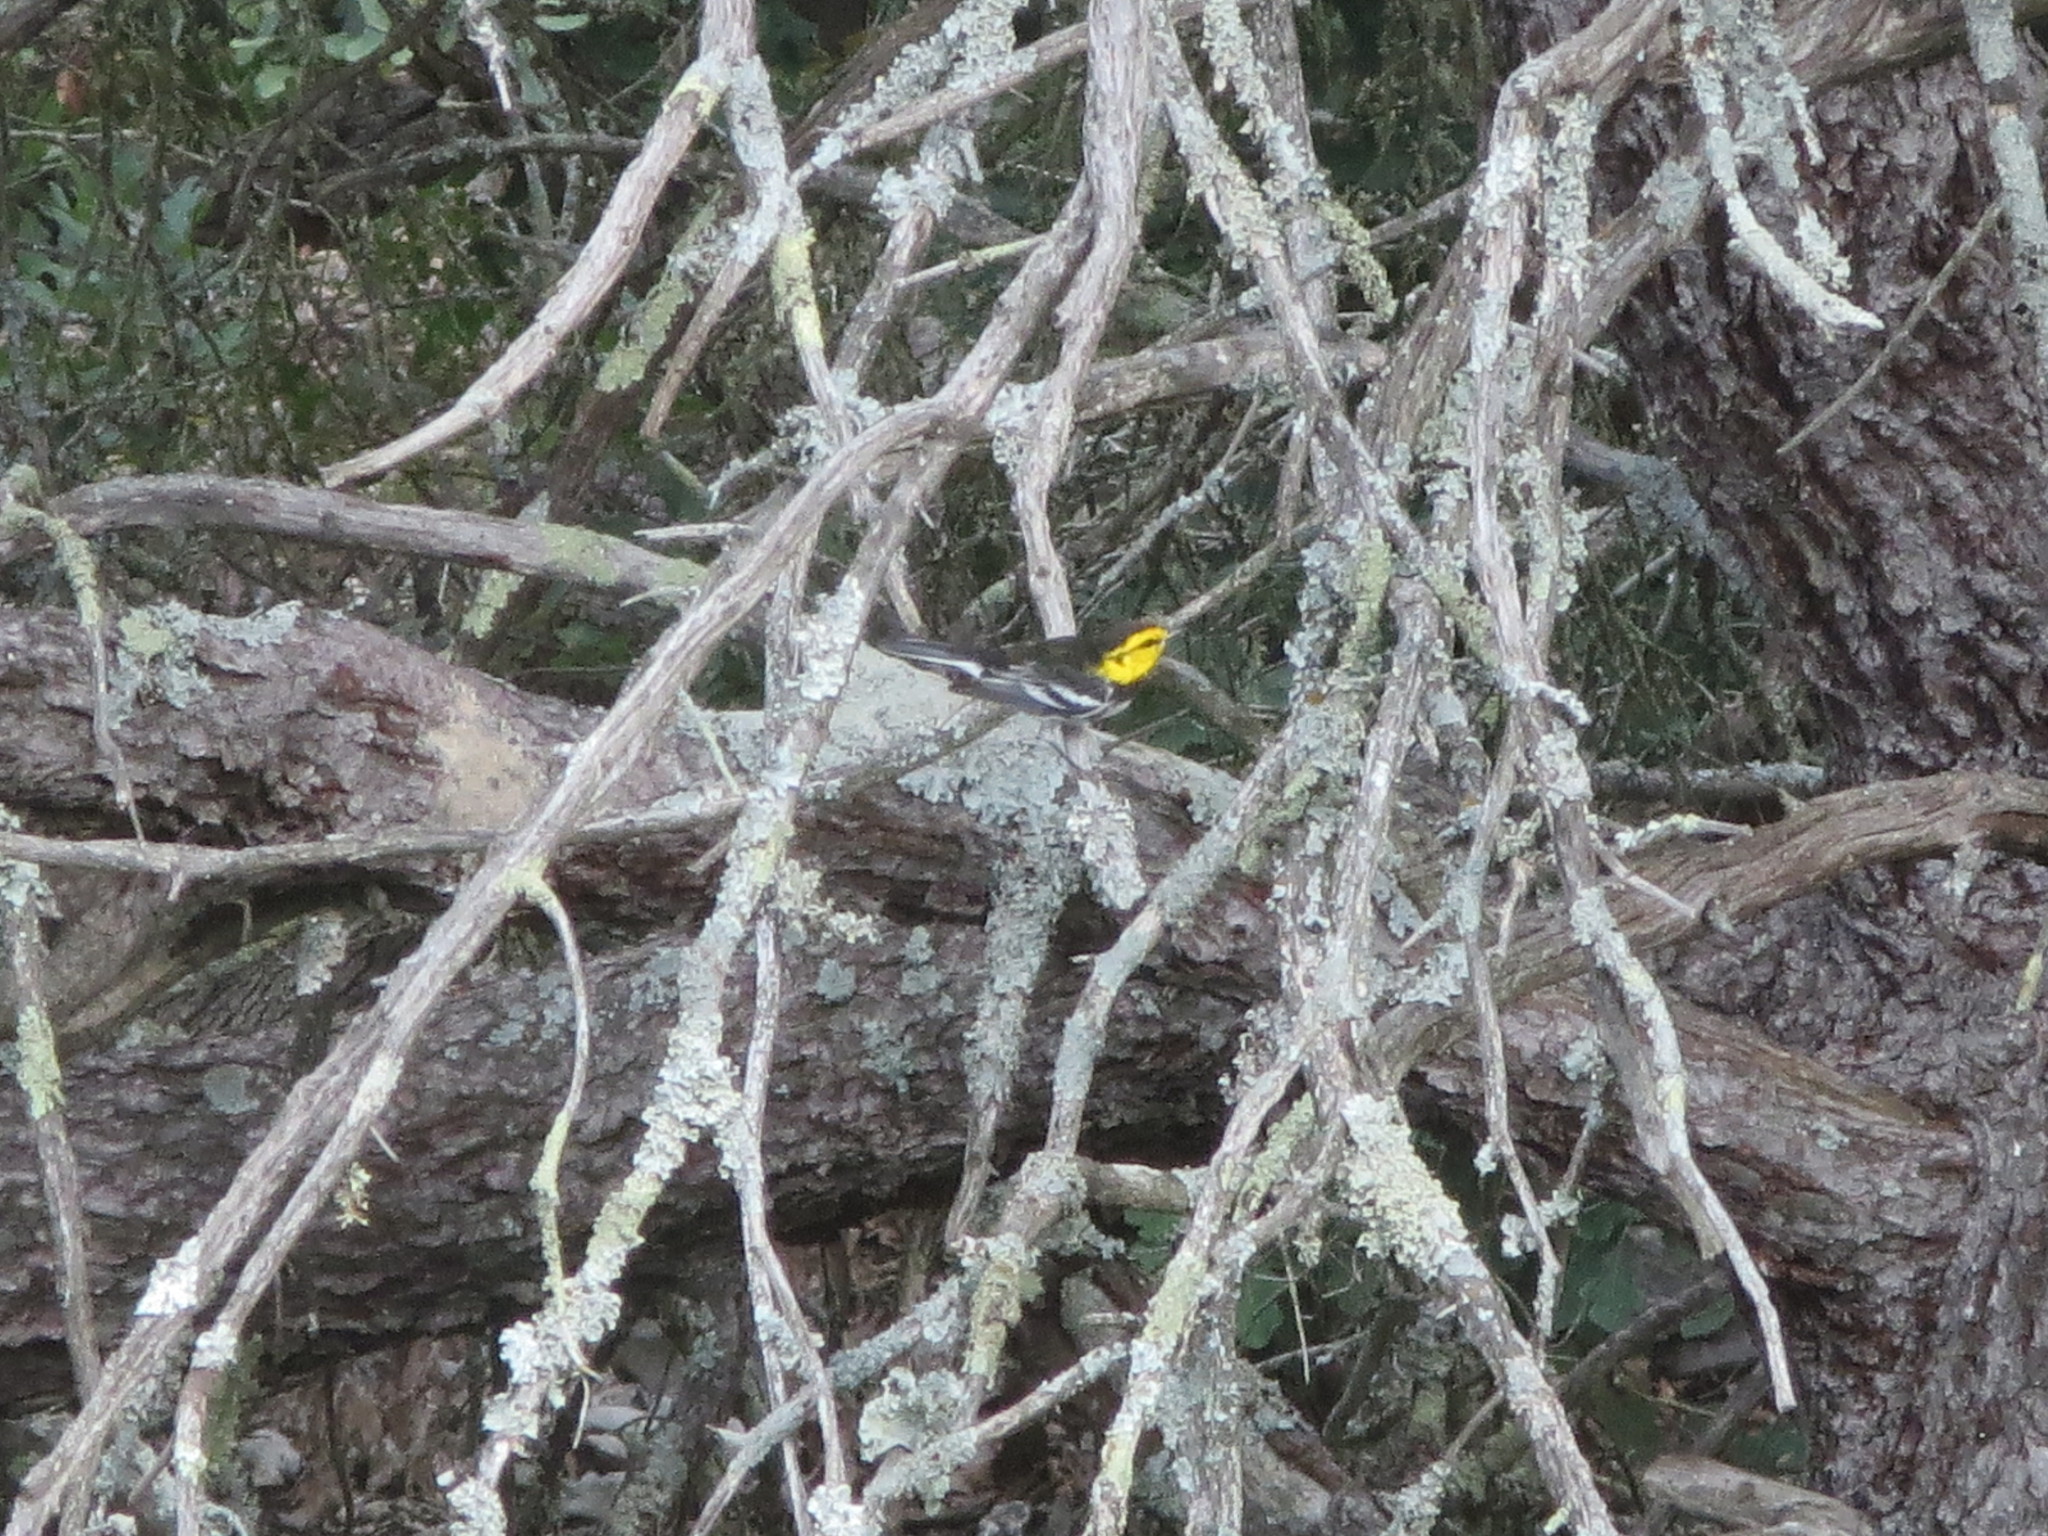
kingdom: Animalia
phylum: Chordata
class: Aves
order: Passeriformes
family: Parulidae
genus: Setophaga
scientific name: Setophaga chrysoparia
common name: Golden-cheeked warbler
